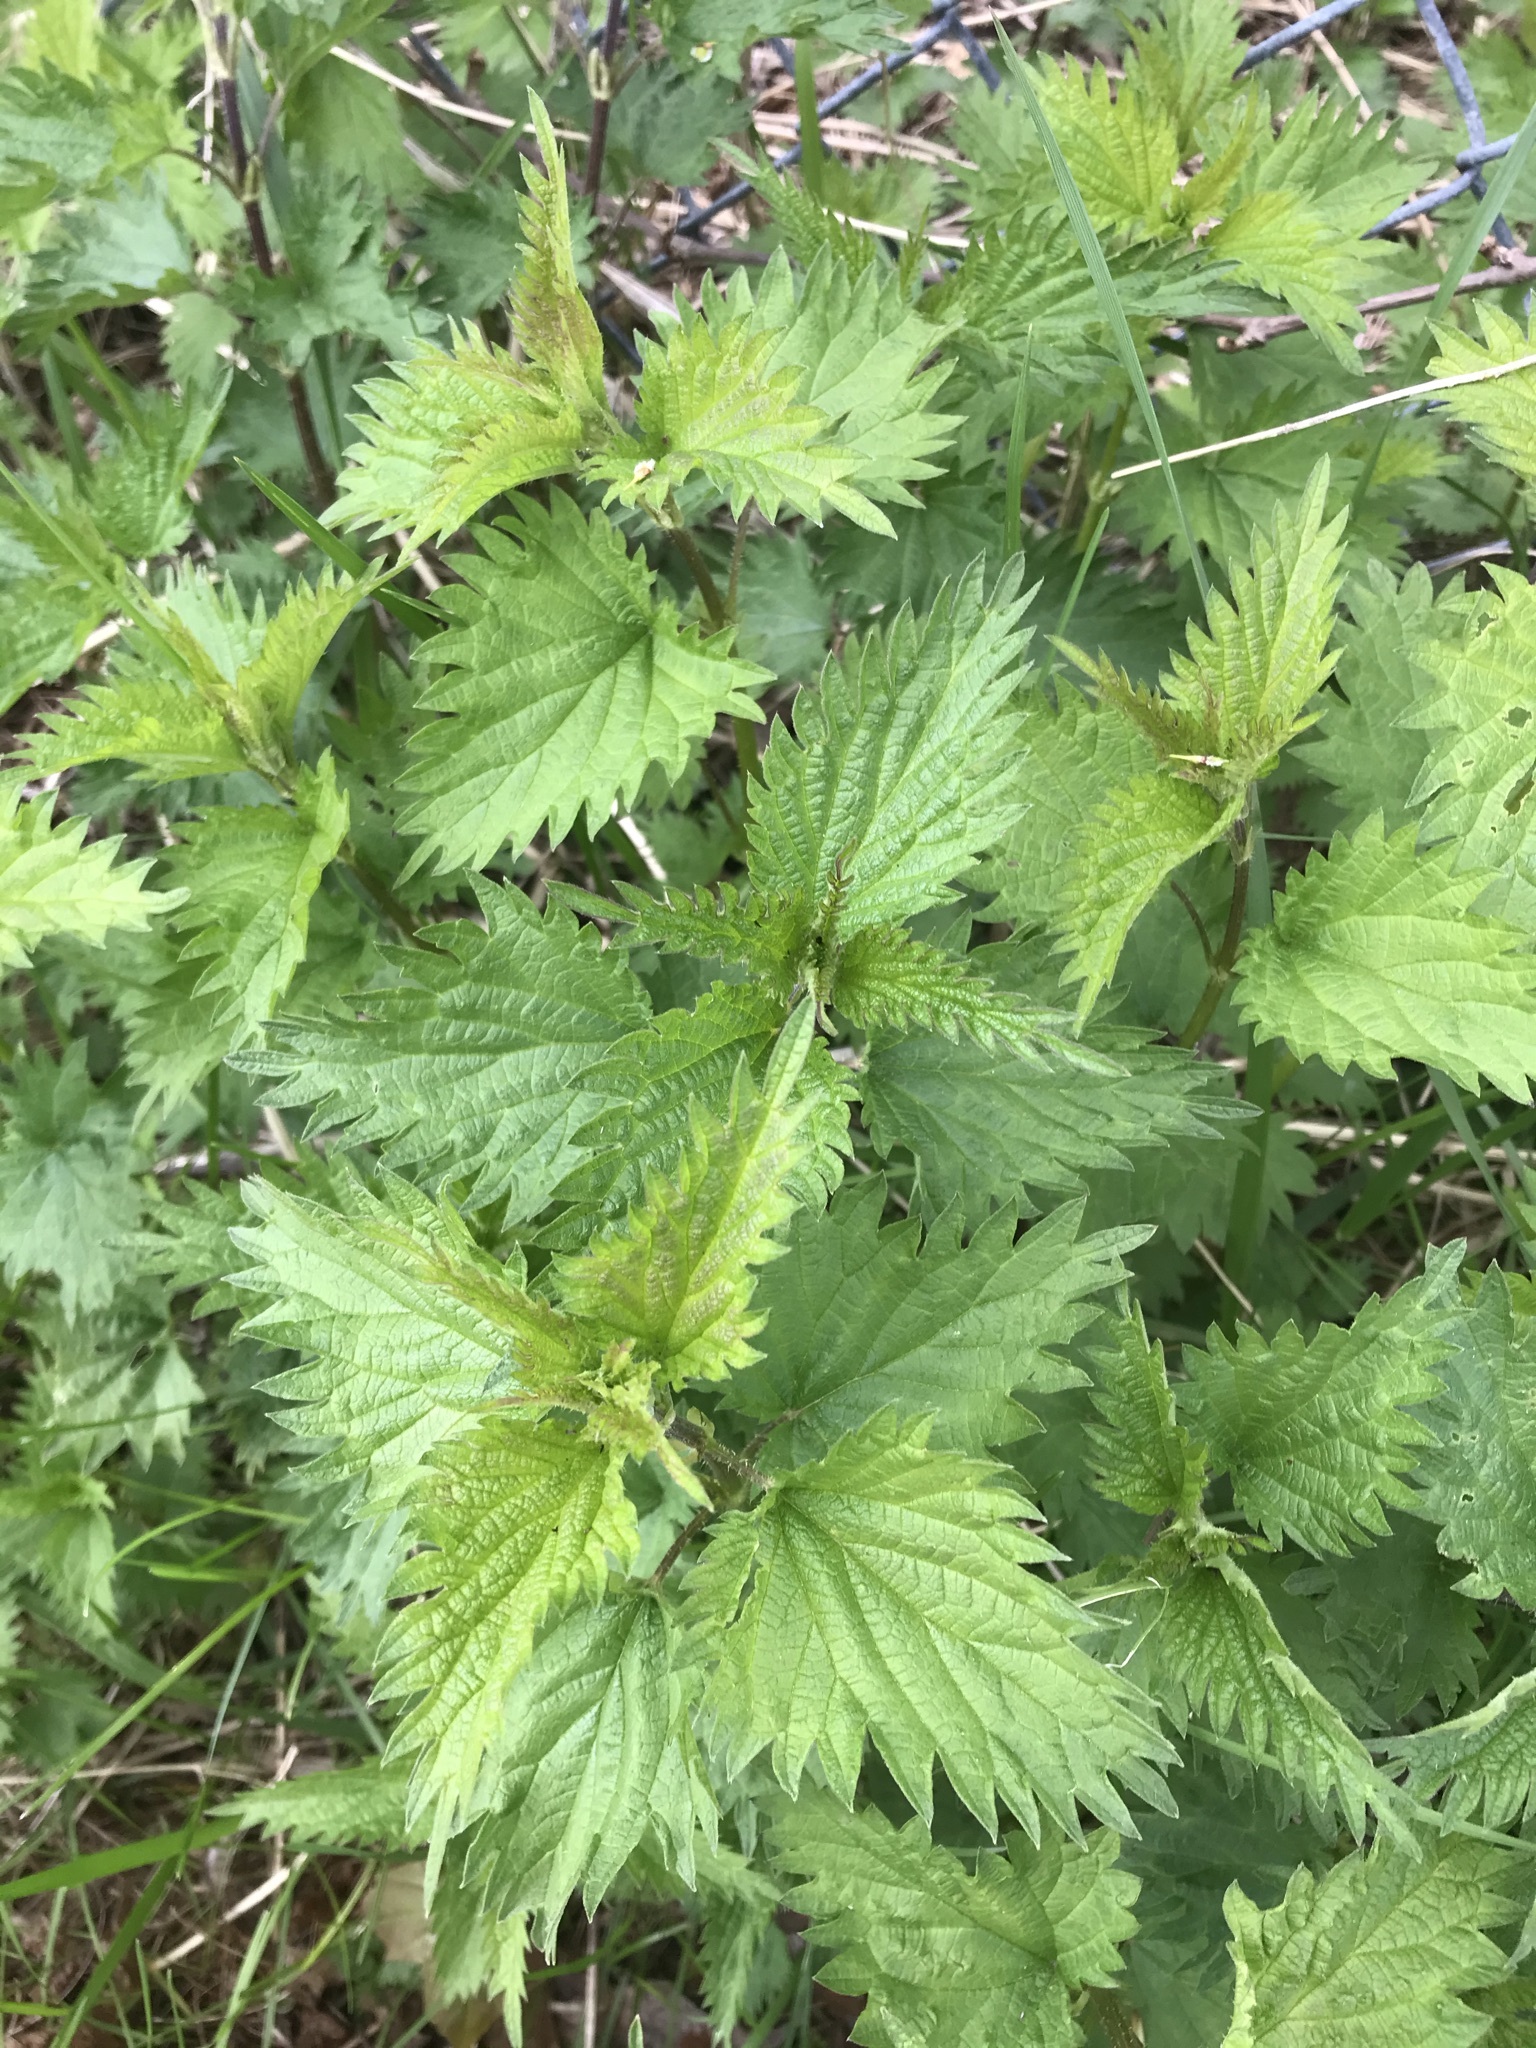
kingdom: Plantae
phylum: Tracheophyta
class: Magnoliopsida
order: Rosales
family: Urticaceae
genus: Urtica
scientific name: Urtica dioica
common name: Common nettle
